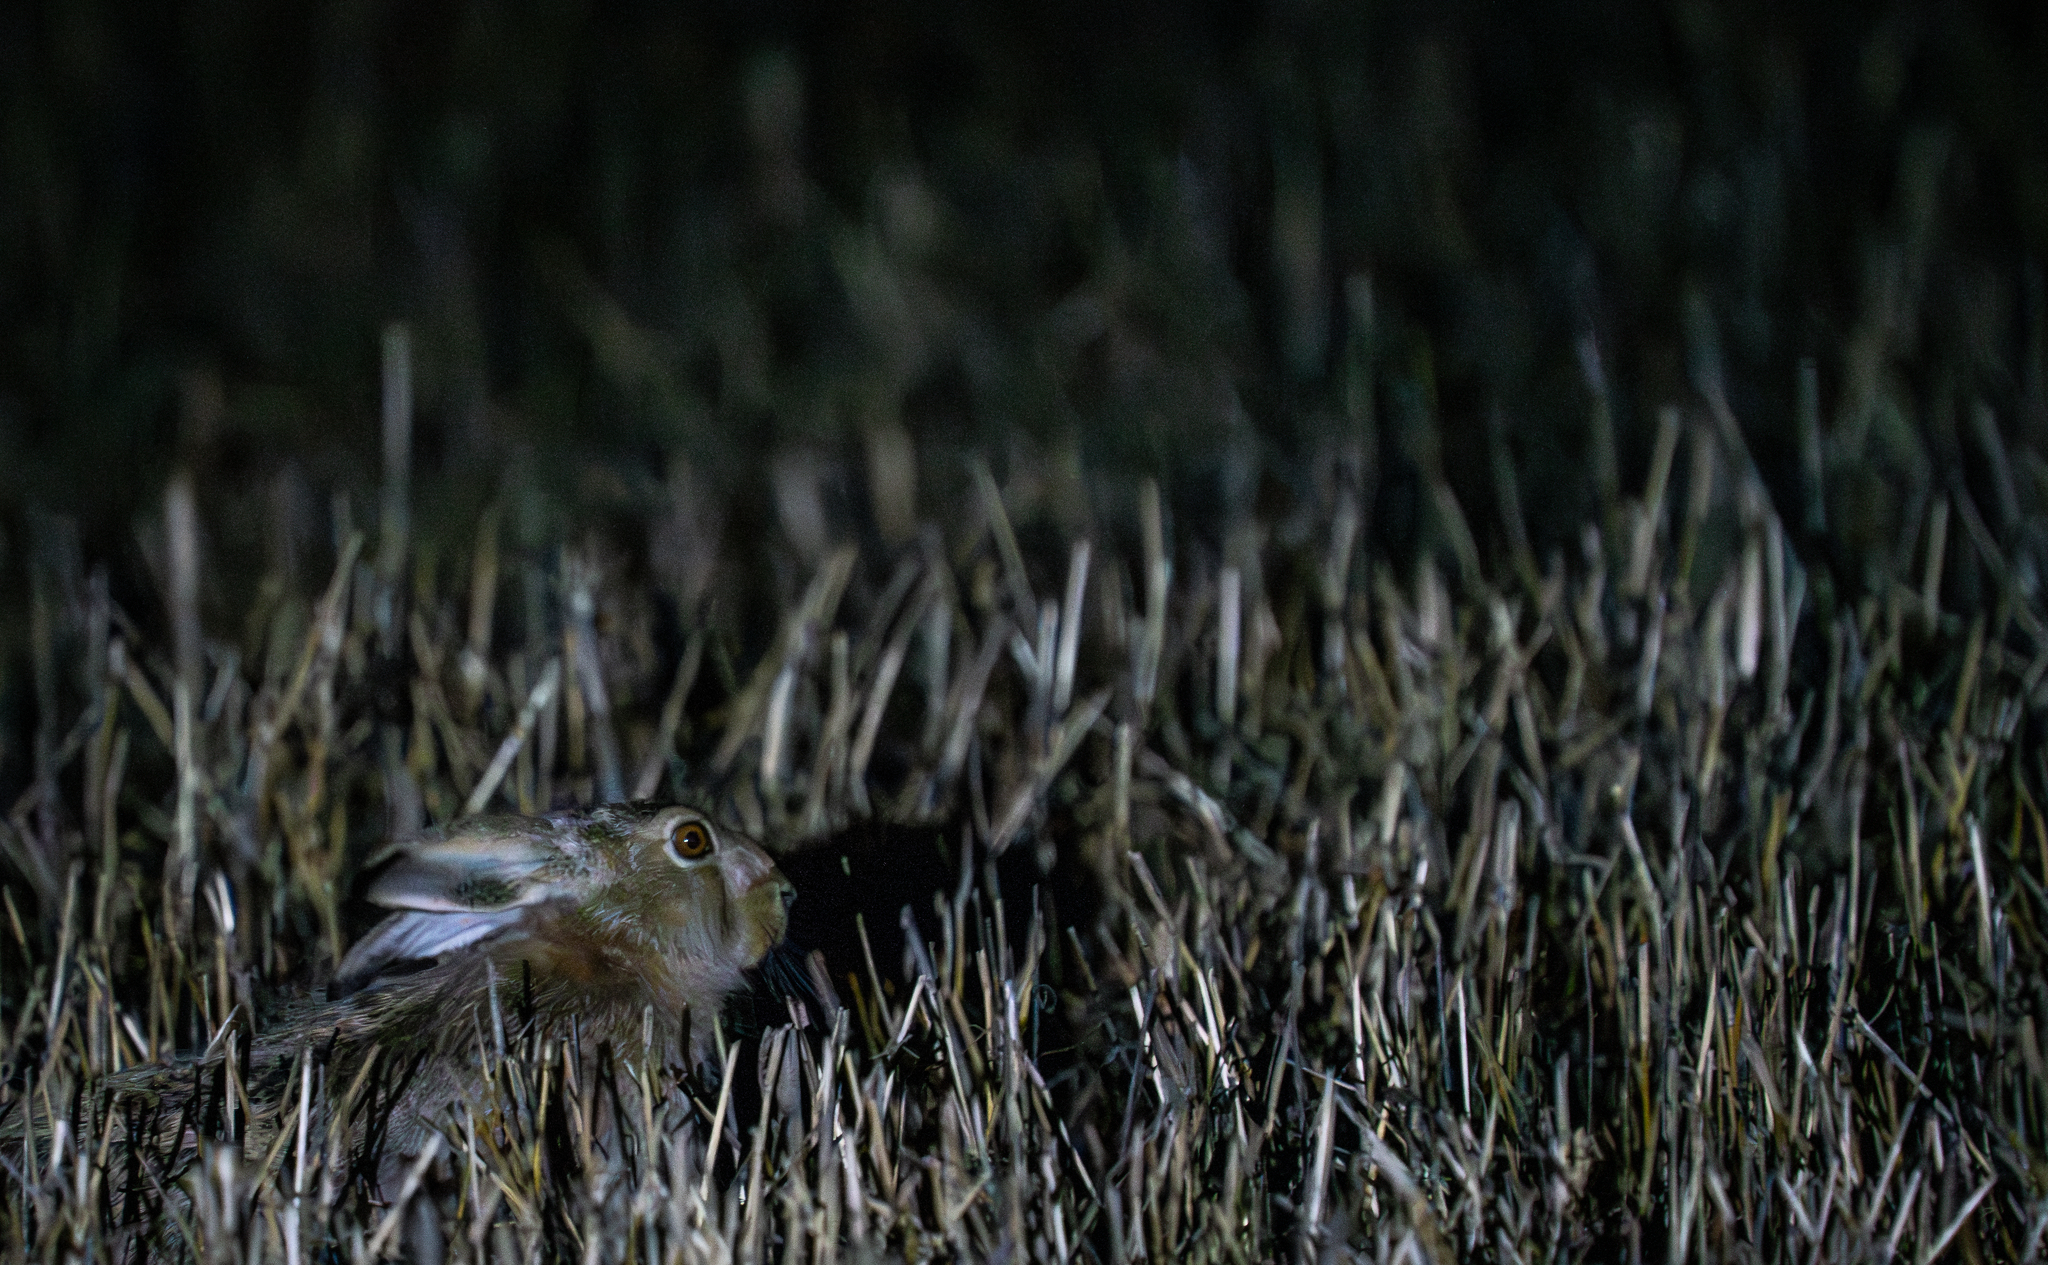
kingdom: Animalia
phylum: Chordata
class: Mammalia
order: Lagomorpha
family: Leporidae
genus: Lepus
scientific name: Lepus europaeus
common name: European hare
